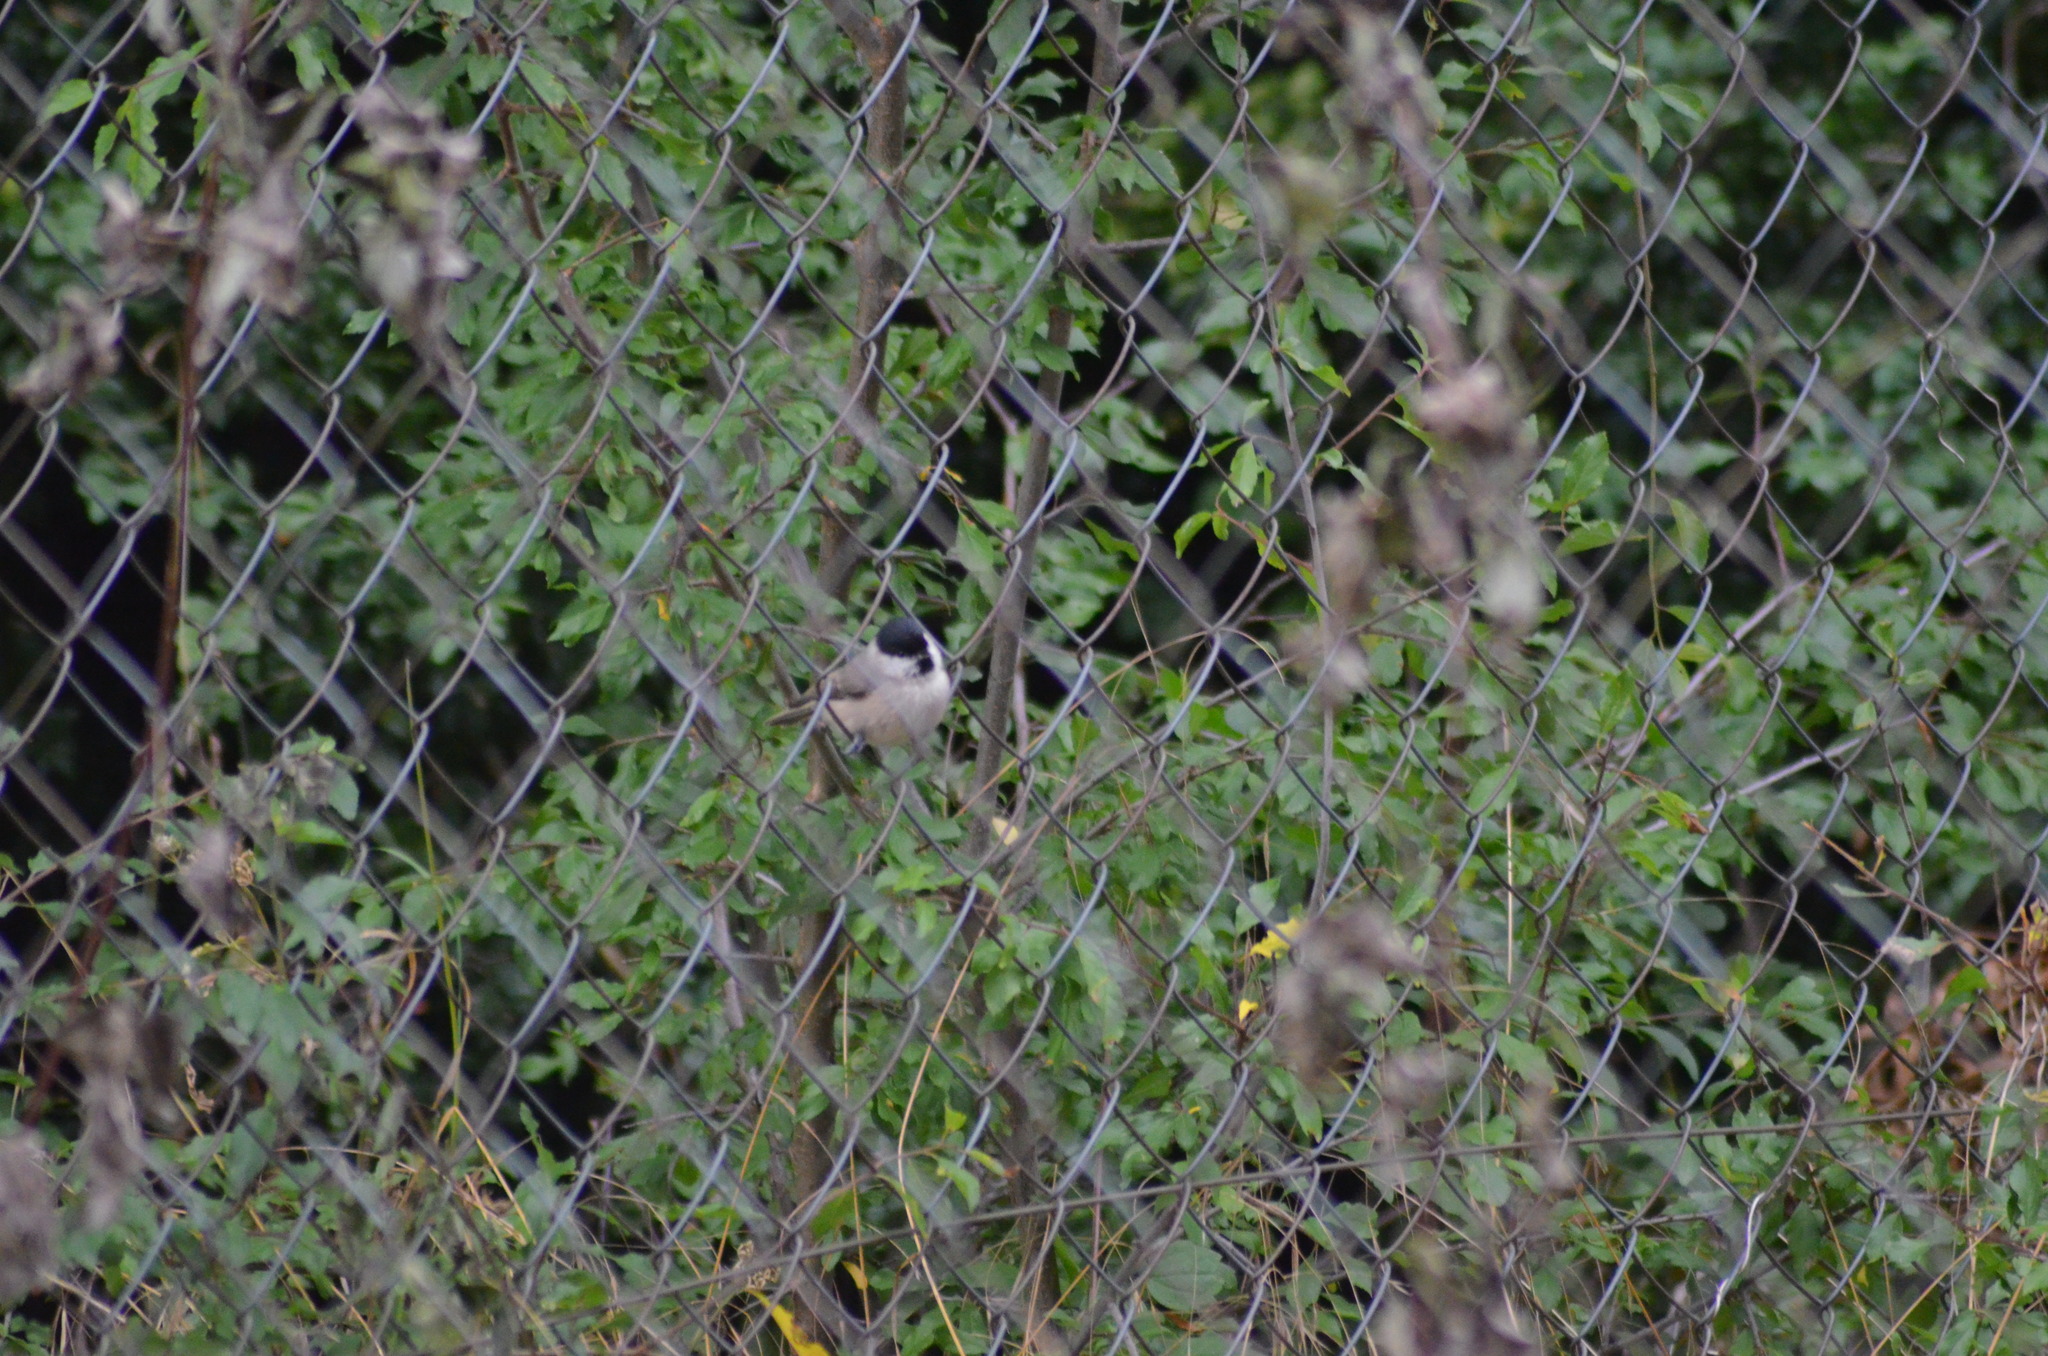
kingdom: Animalia
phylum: Chordata
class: Aves
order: Passeriformes
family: Paridae
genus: Poecile
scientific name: Poecile palustris
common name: Marsh tit
